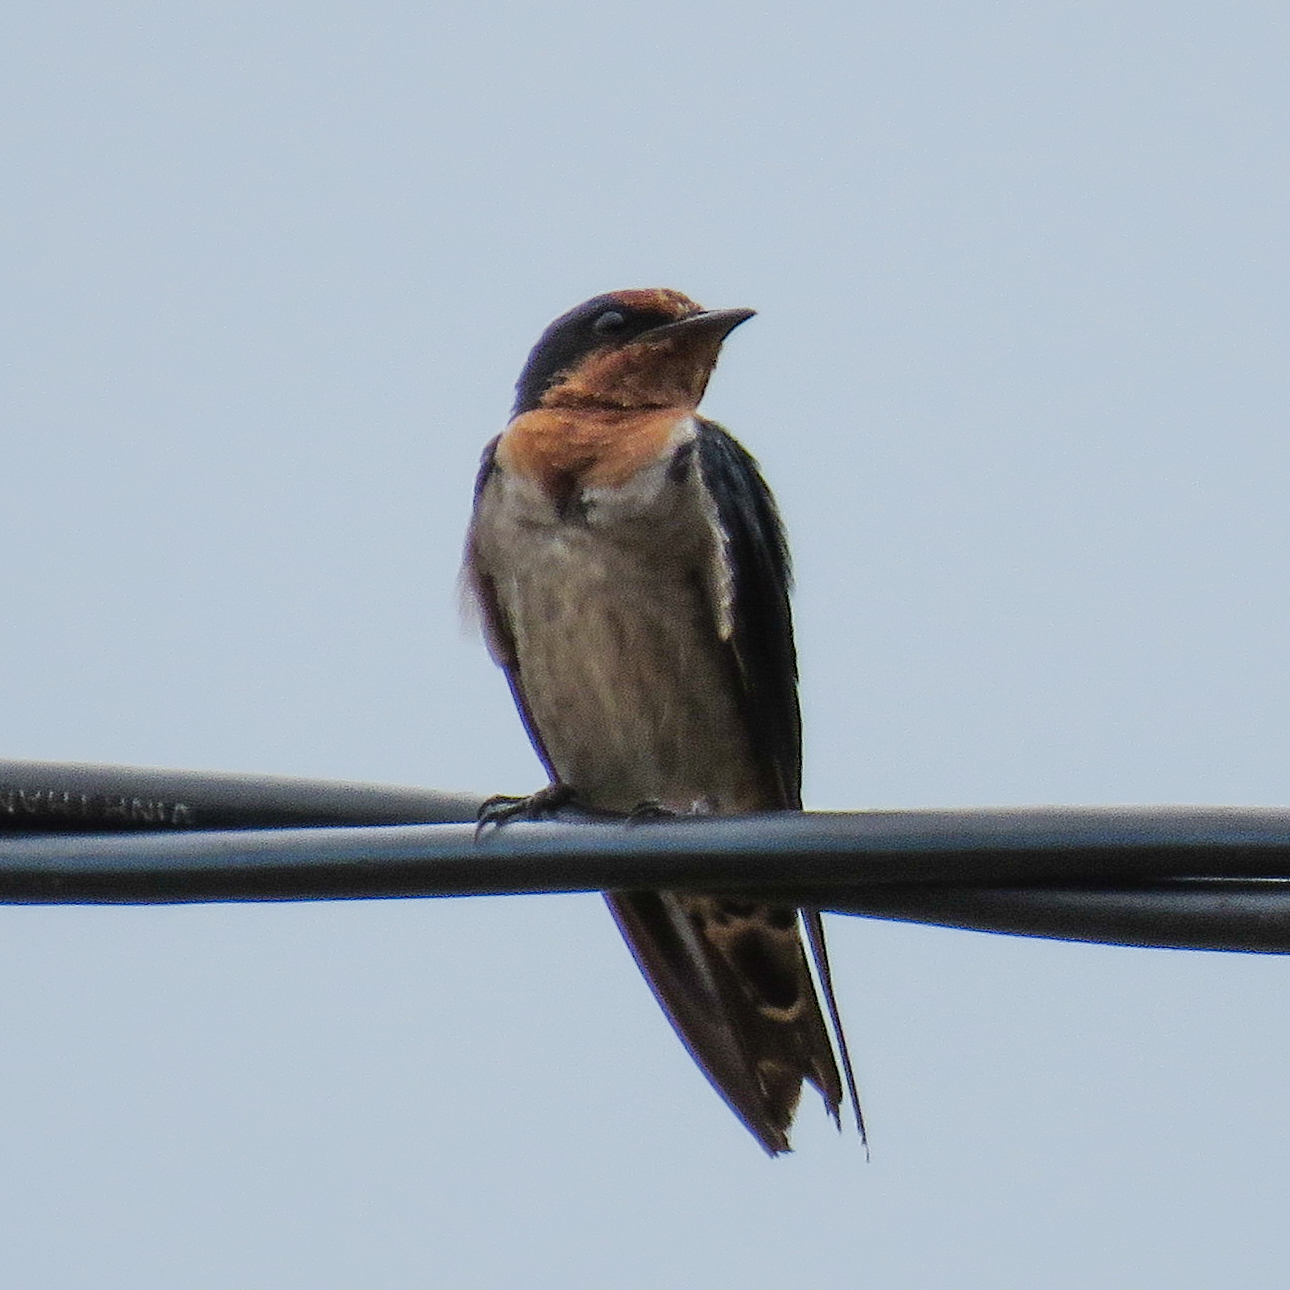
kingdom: Animalia
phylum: Chordata
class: Aves
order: Passeriformes
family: Hirundinidae
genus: Hirundo
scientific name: Hirundo tahitica
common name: Pacific swallow
